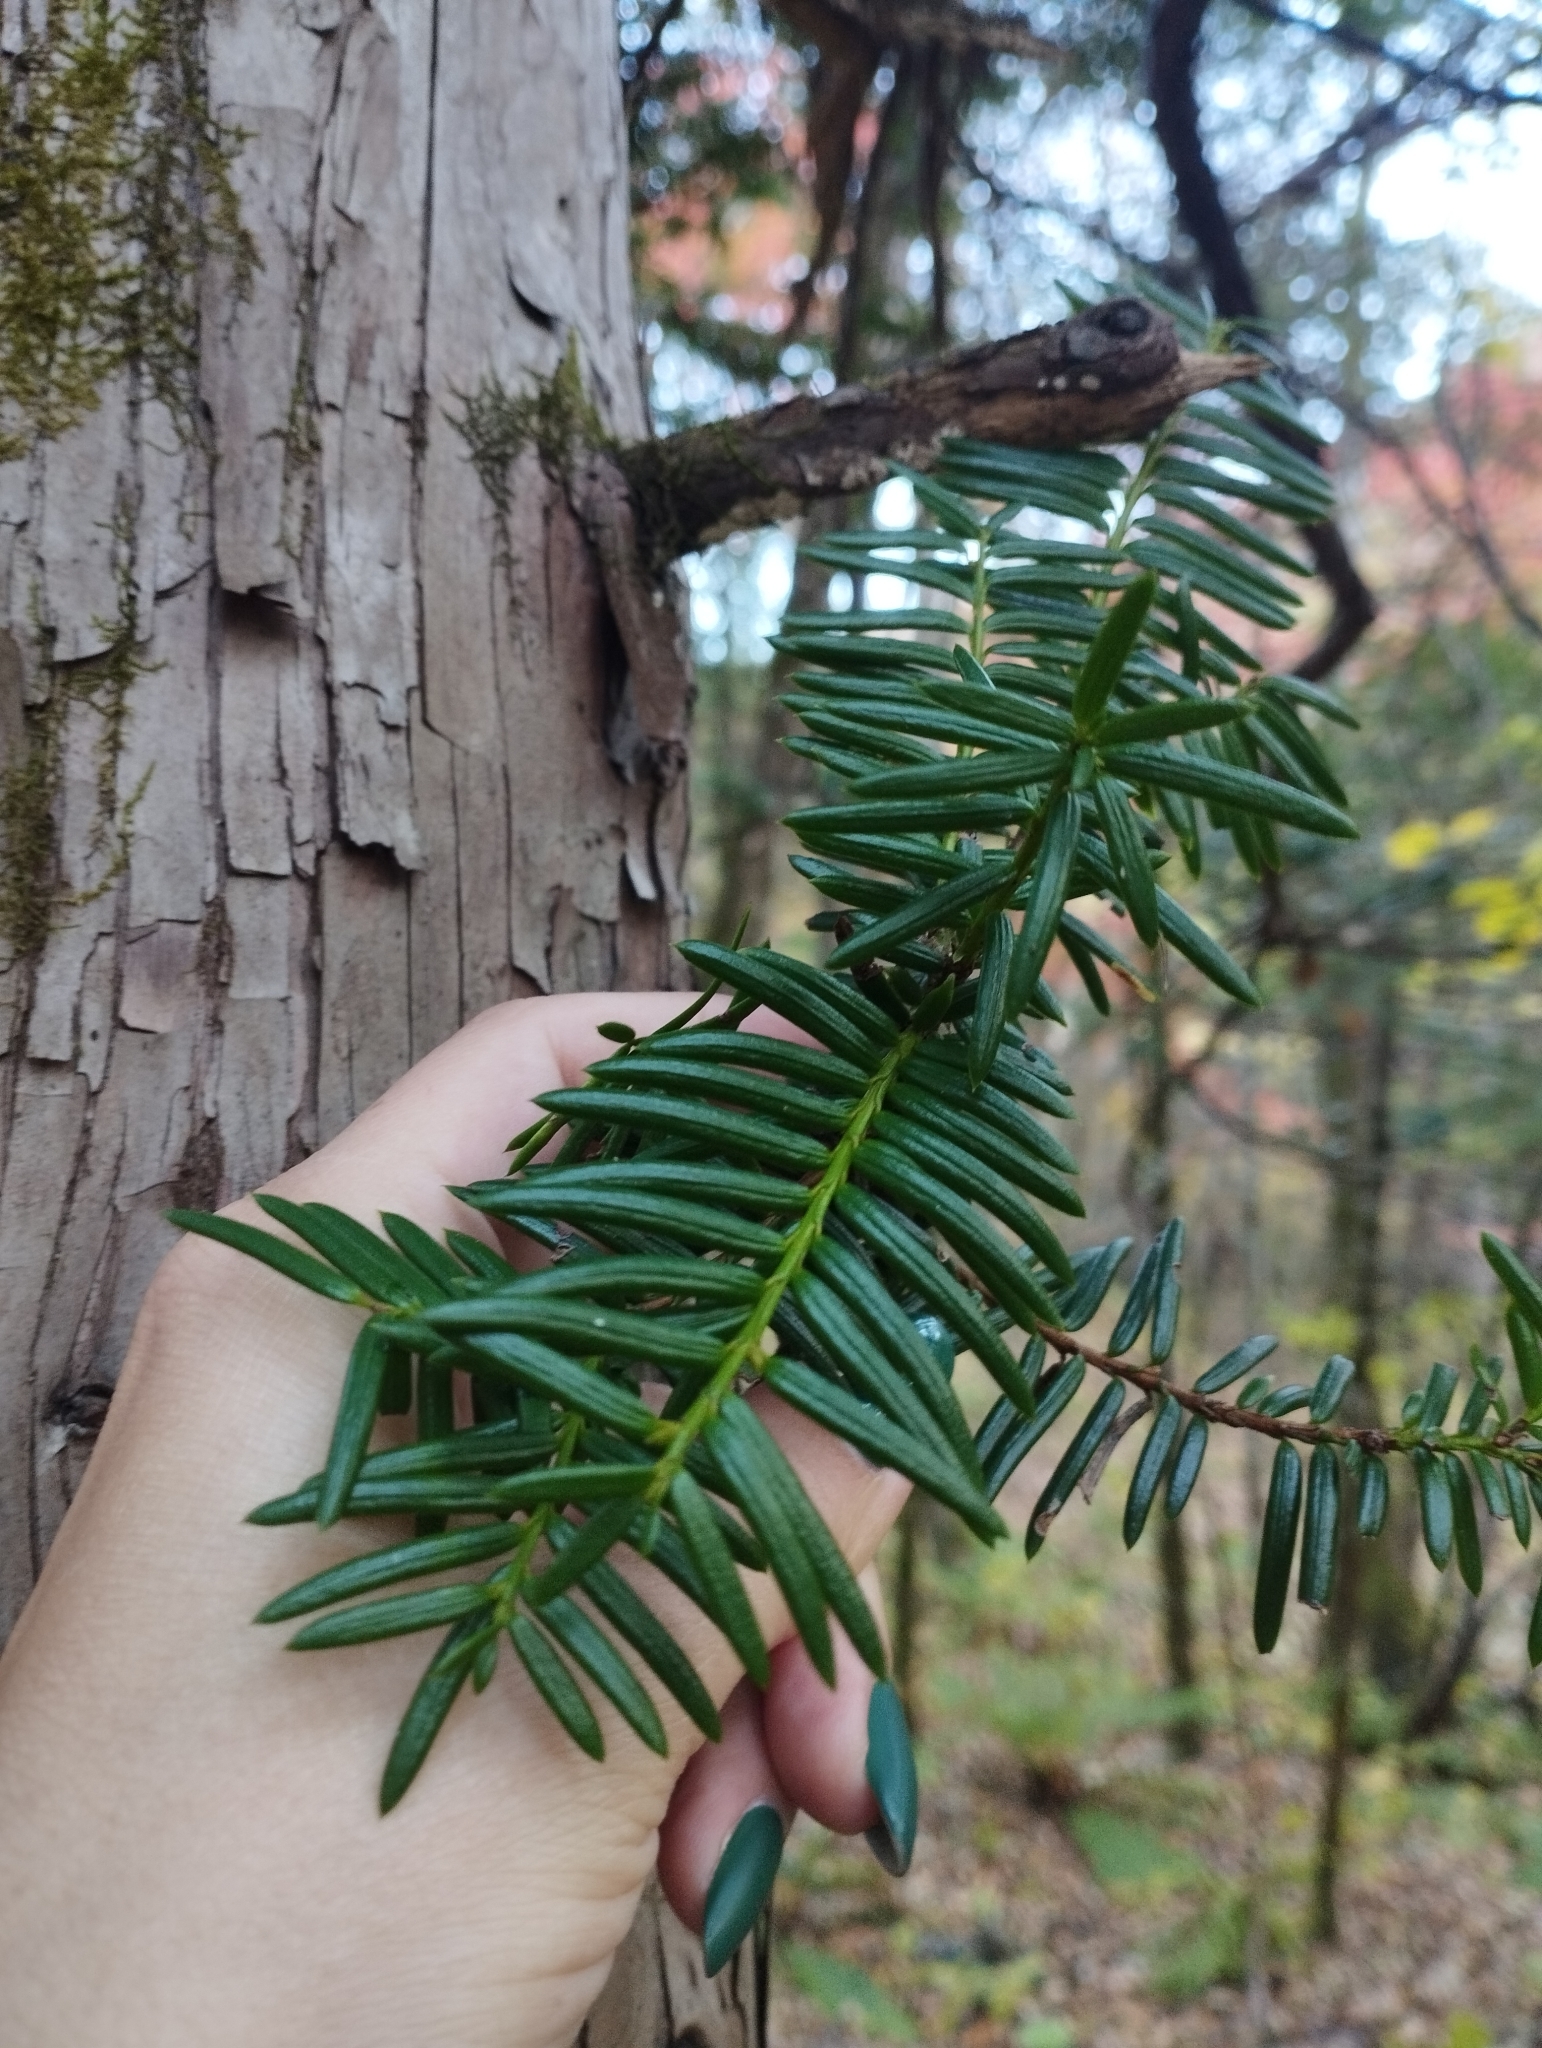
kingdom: Plantae
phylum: Tracheophyta
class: Pinopsida
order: Pinales
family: Taxaceae
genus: Taxus
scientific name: Taxus cuspidata
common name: Japanese yew
